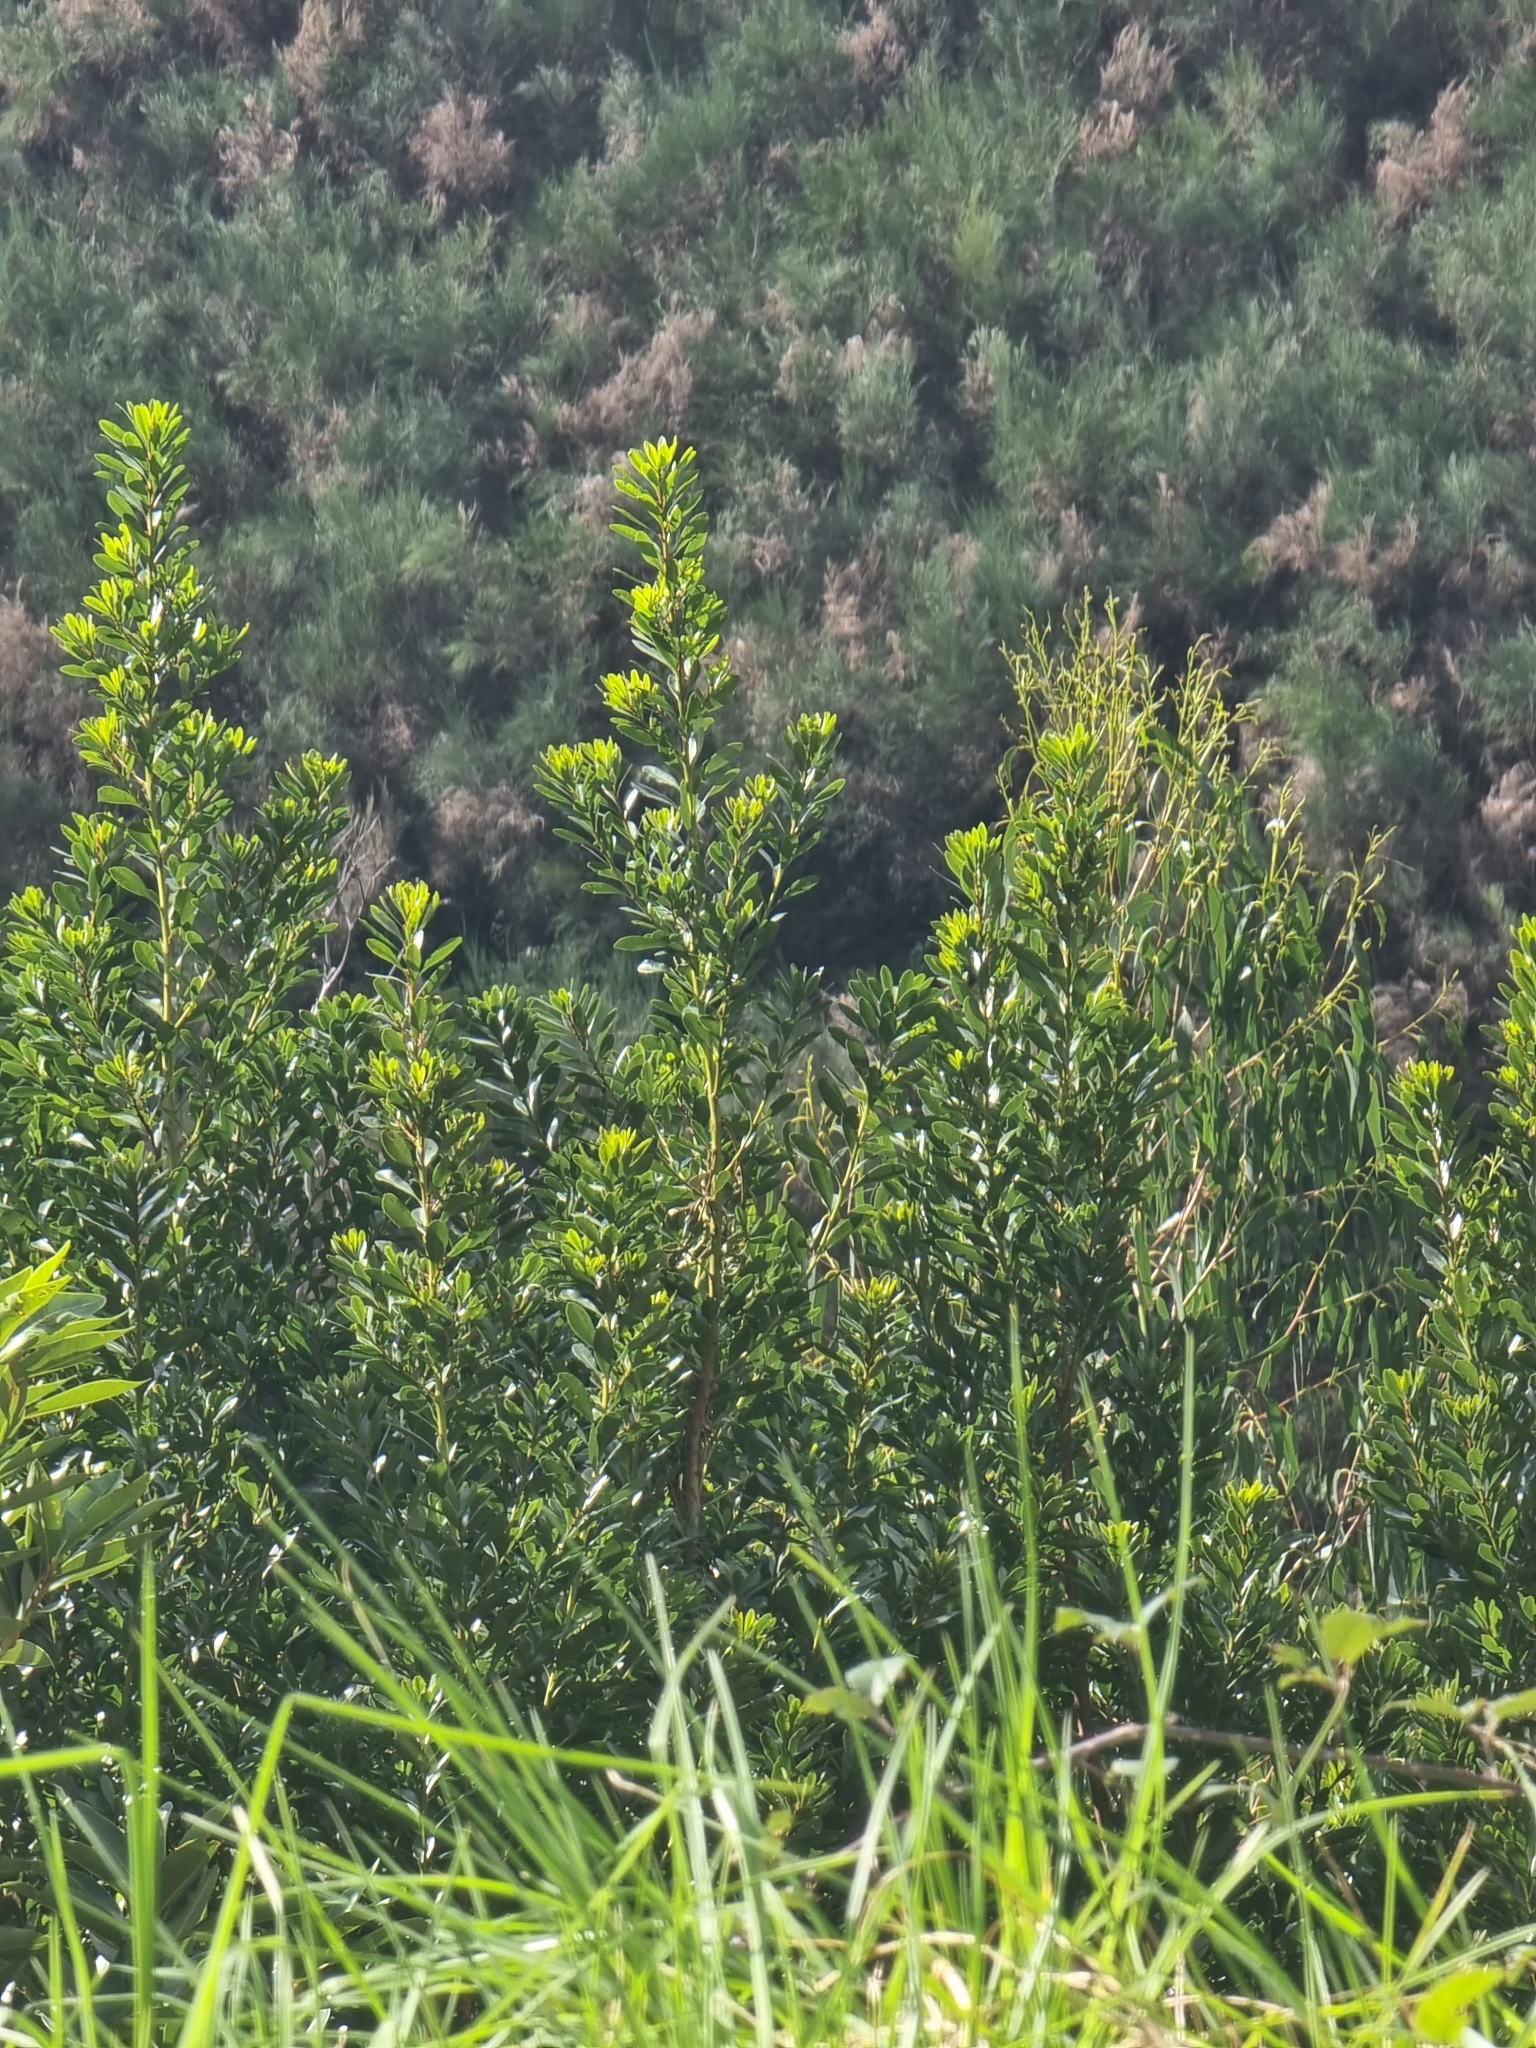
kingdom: Plantae
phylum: Tracheophyta
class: Magnoliopsida
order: Fagales
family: Myricaceae
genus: Morella
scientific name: Morella faya
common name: Firetree
